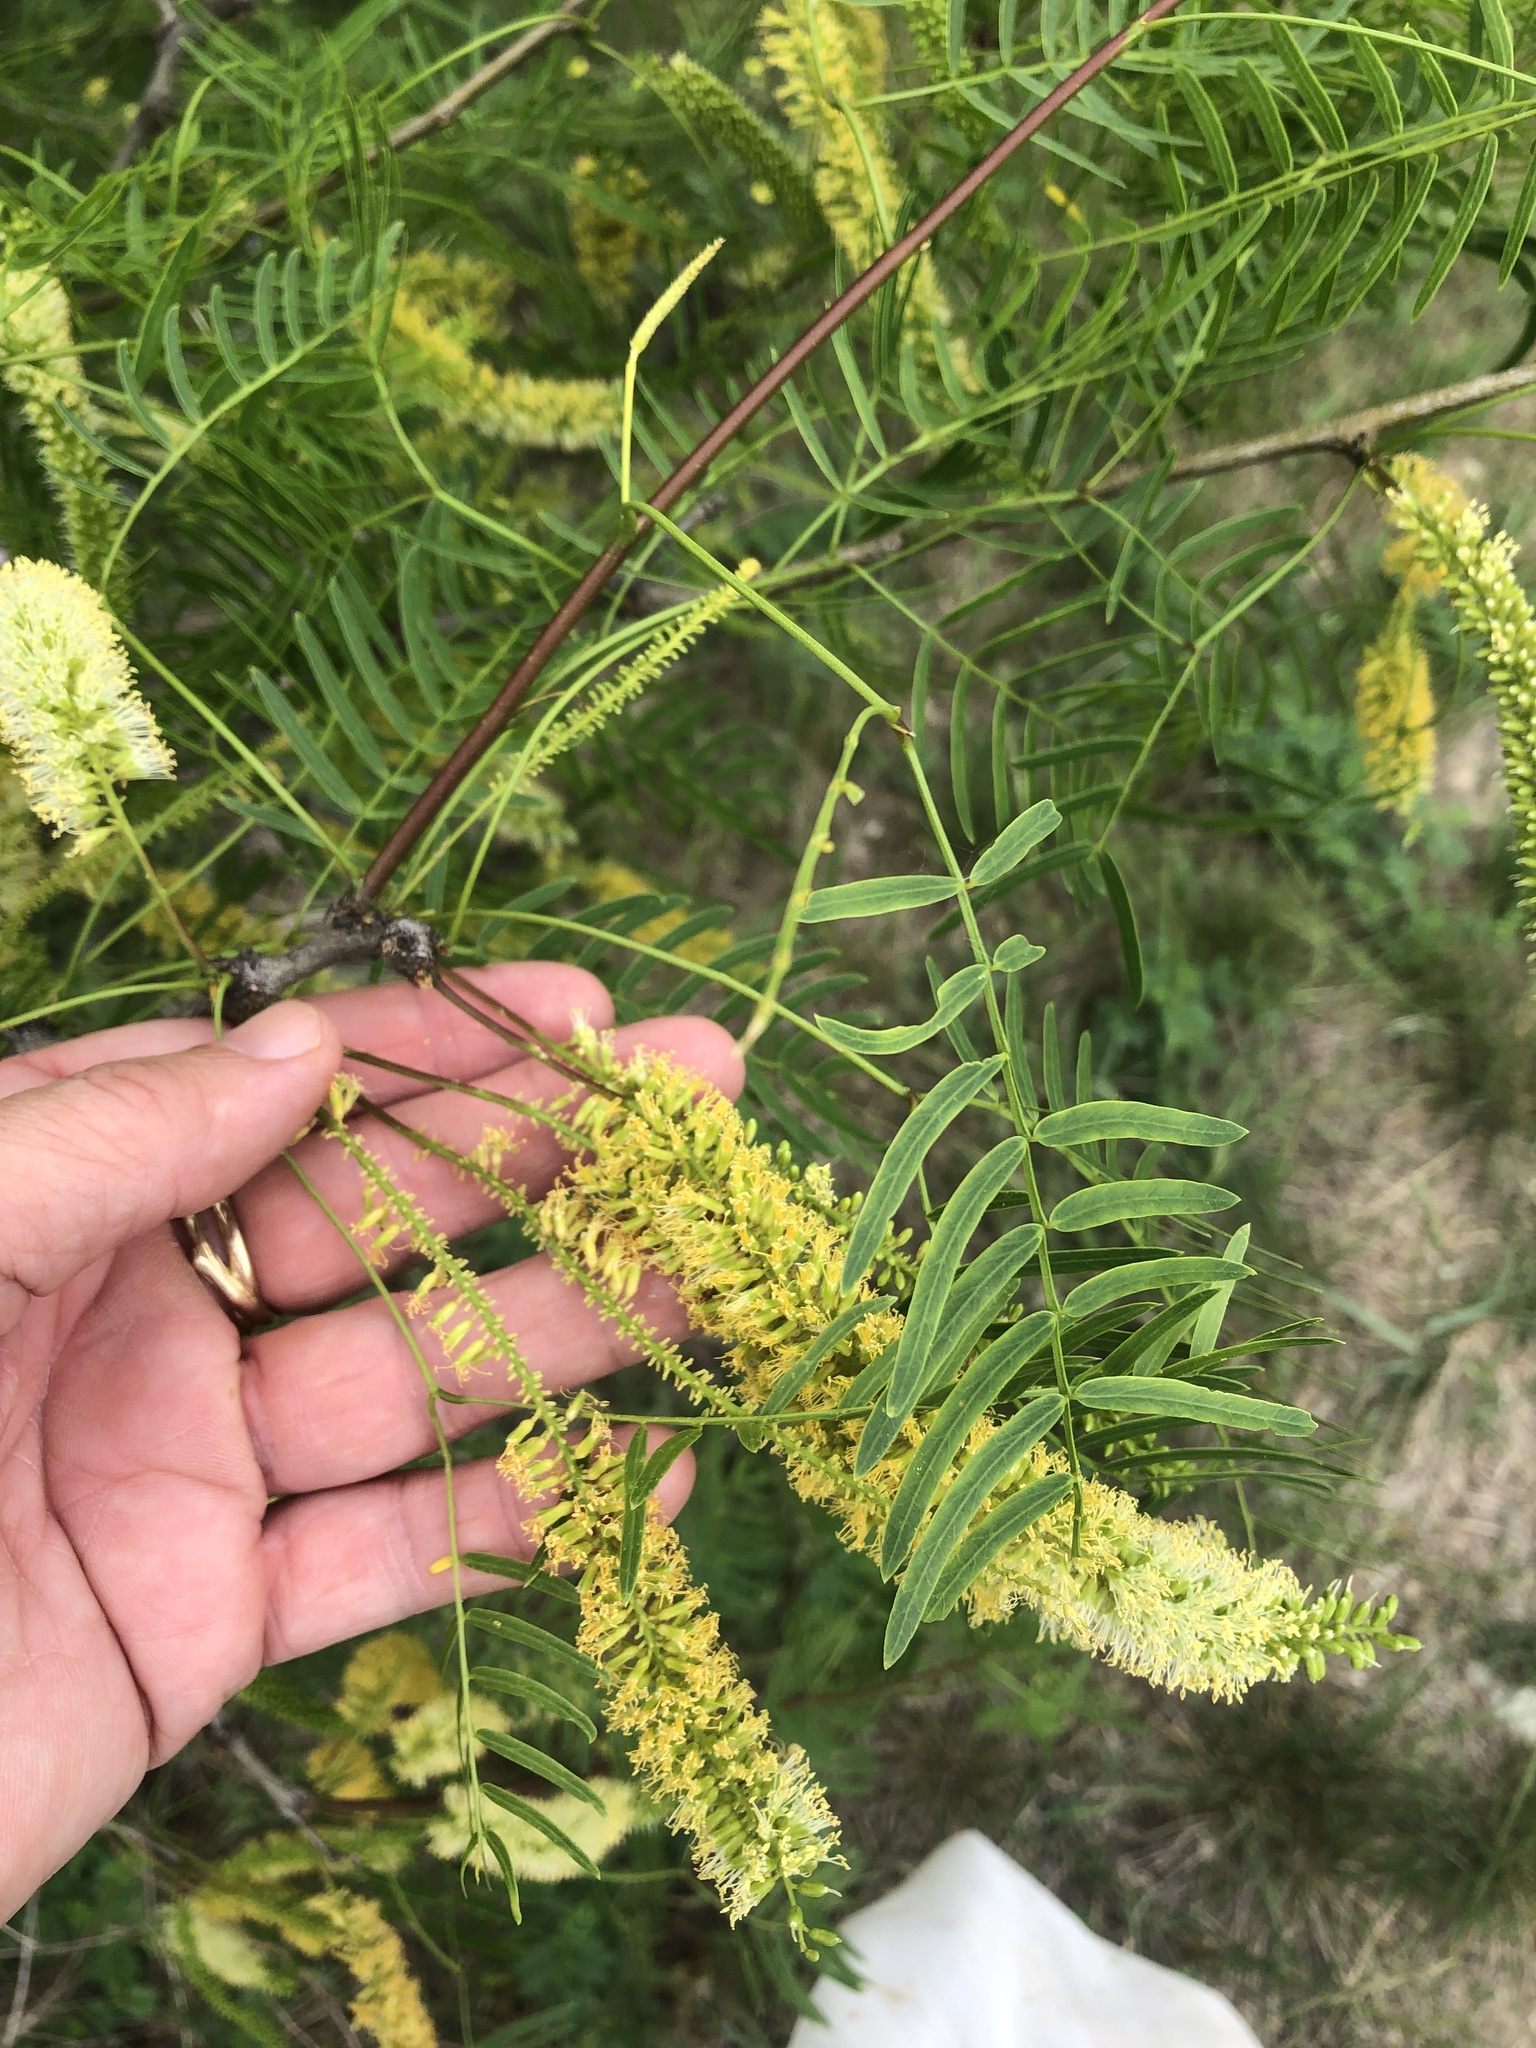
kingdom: Plantae
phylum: Tracheophyta
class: Magnoliopsida
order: Fabales
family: Fabaceae
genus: Prosopis
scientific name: Prosopis glandulosa
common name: Honey mesquite
